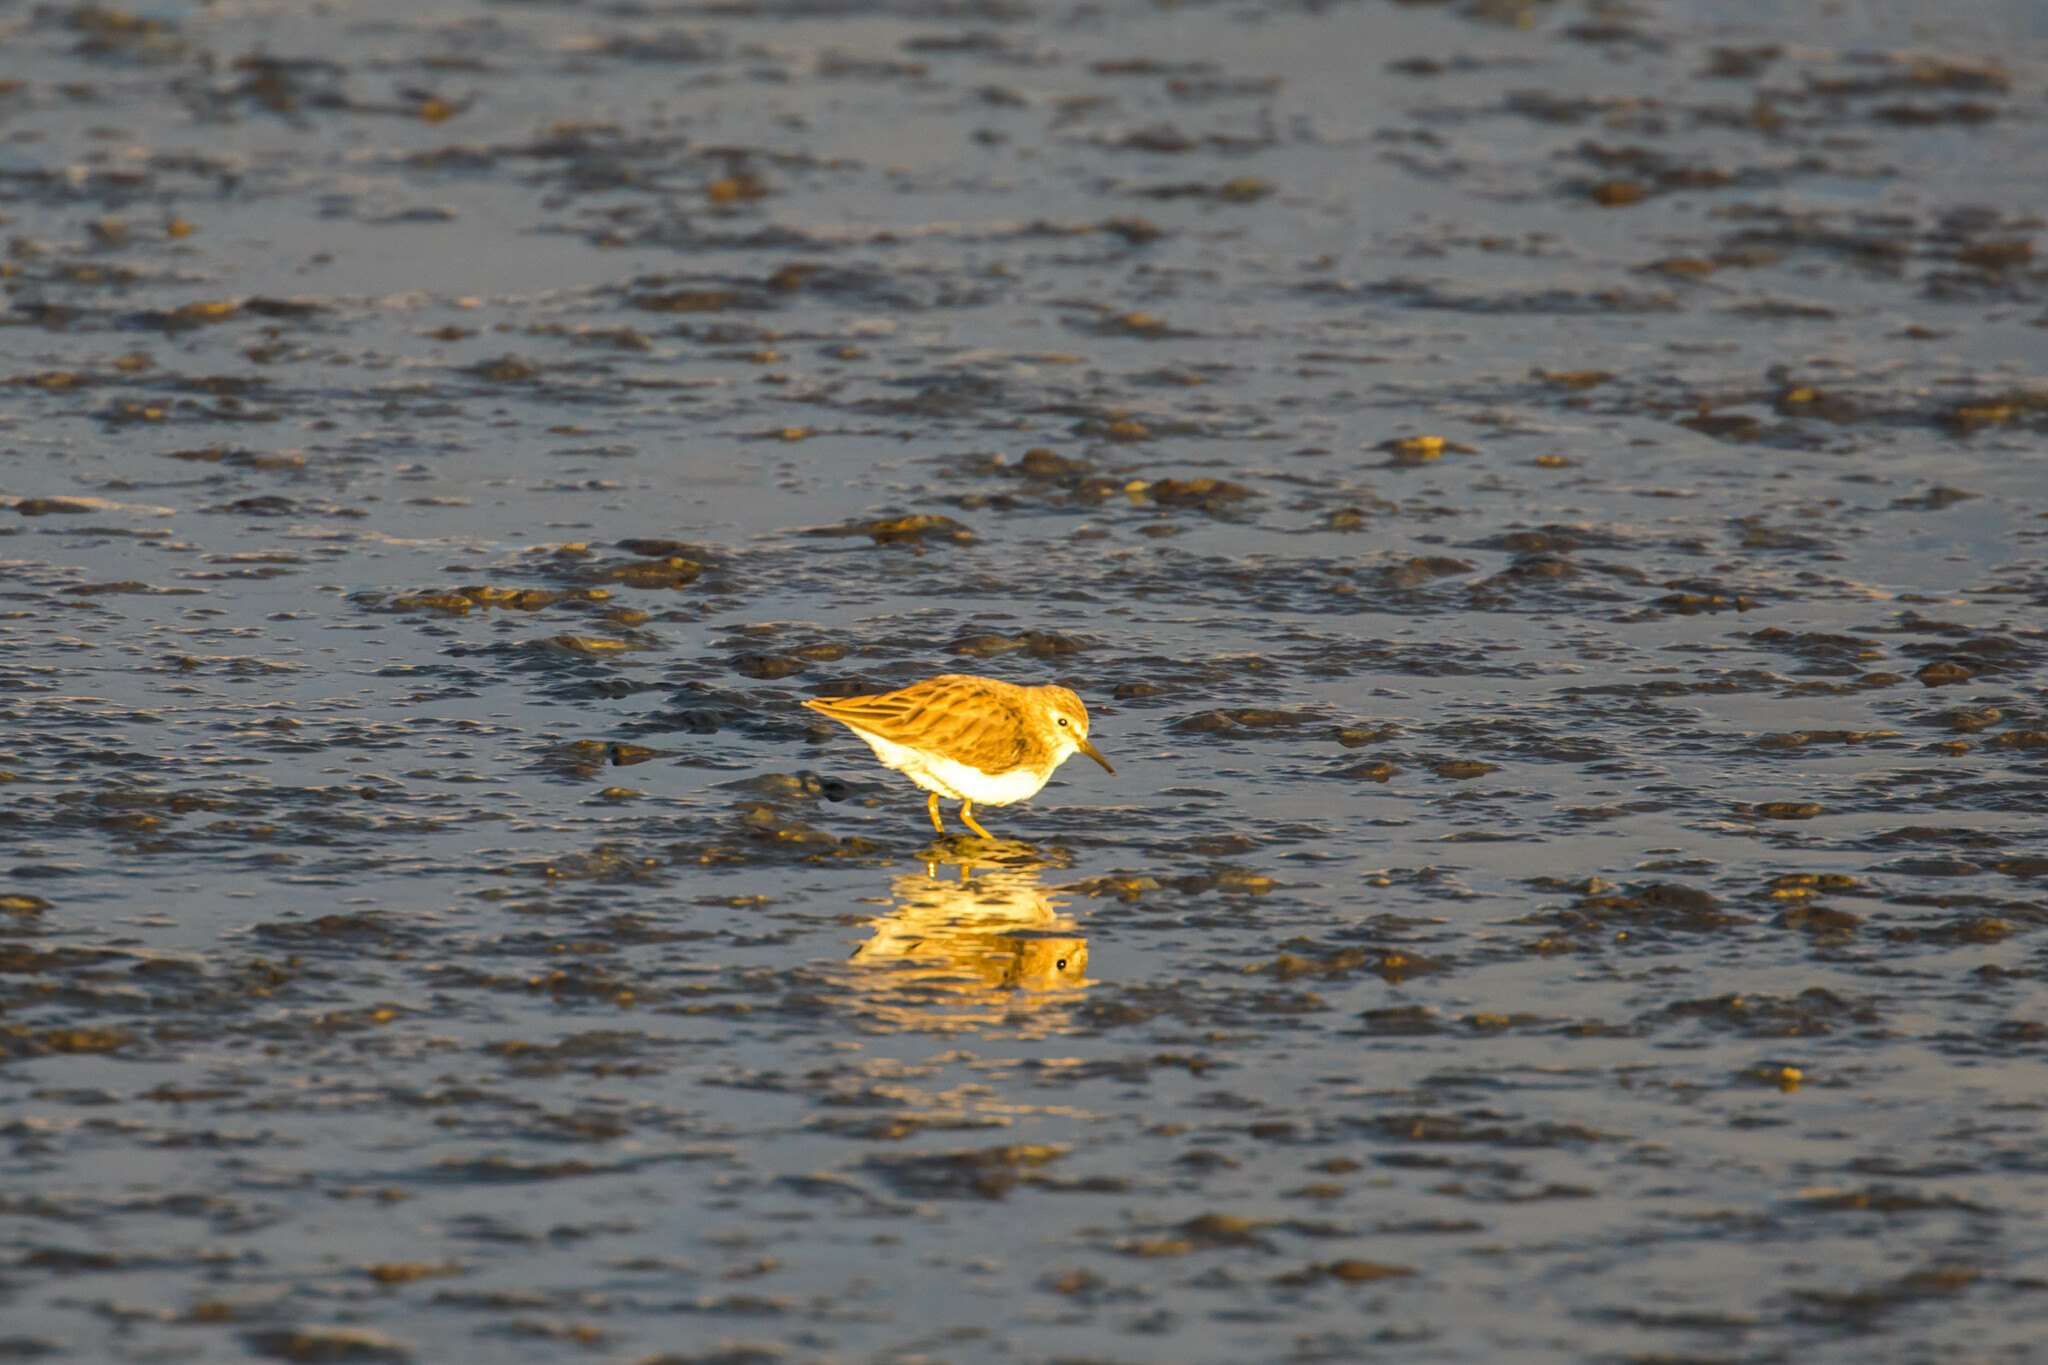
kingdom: Animalia
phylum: Chordata
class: Aves
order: Charadriiformes
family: Scolopacidae
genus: Calidris
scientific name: Calidris minutilla
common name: Least sandpiper
